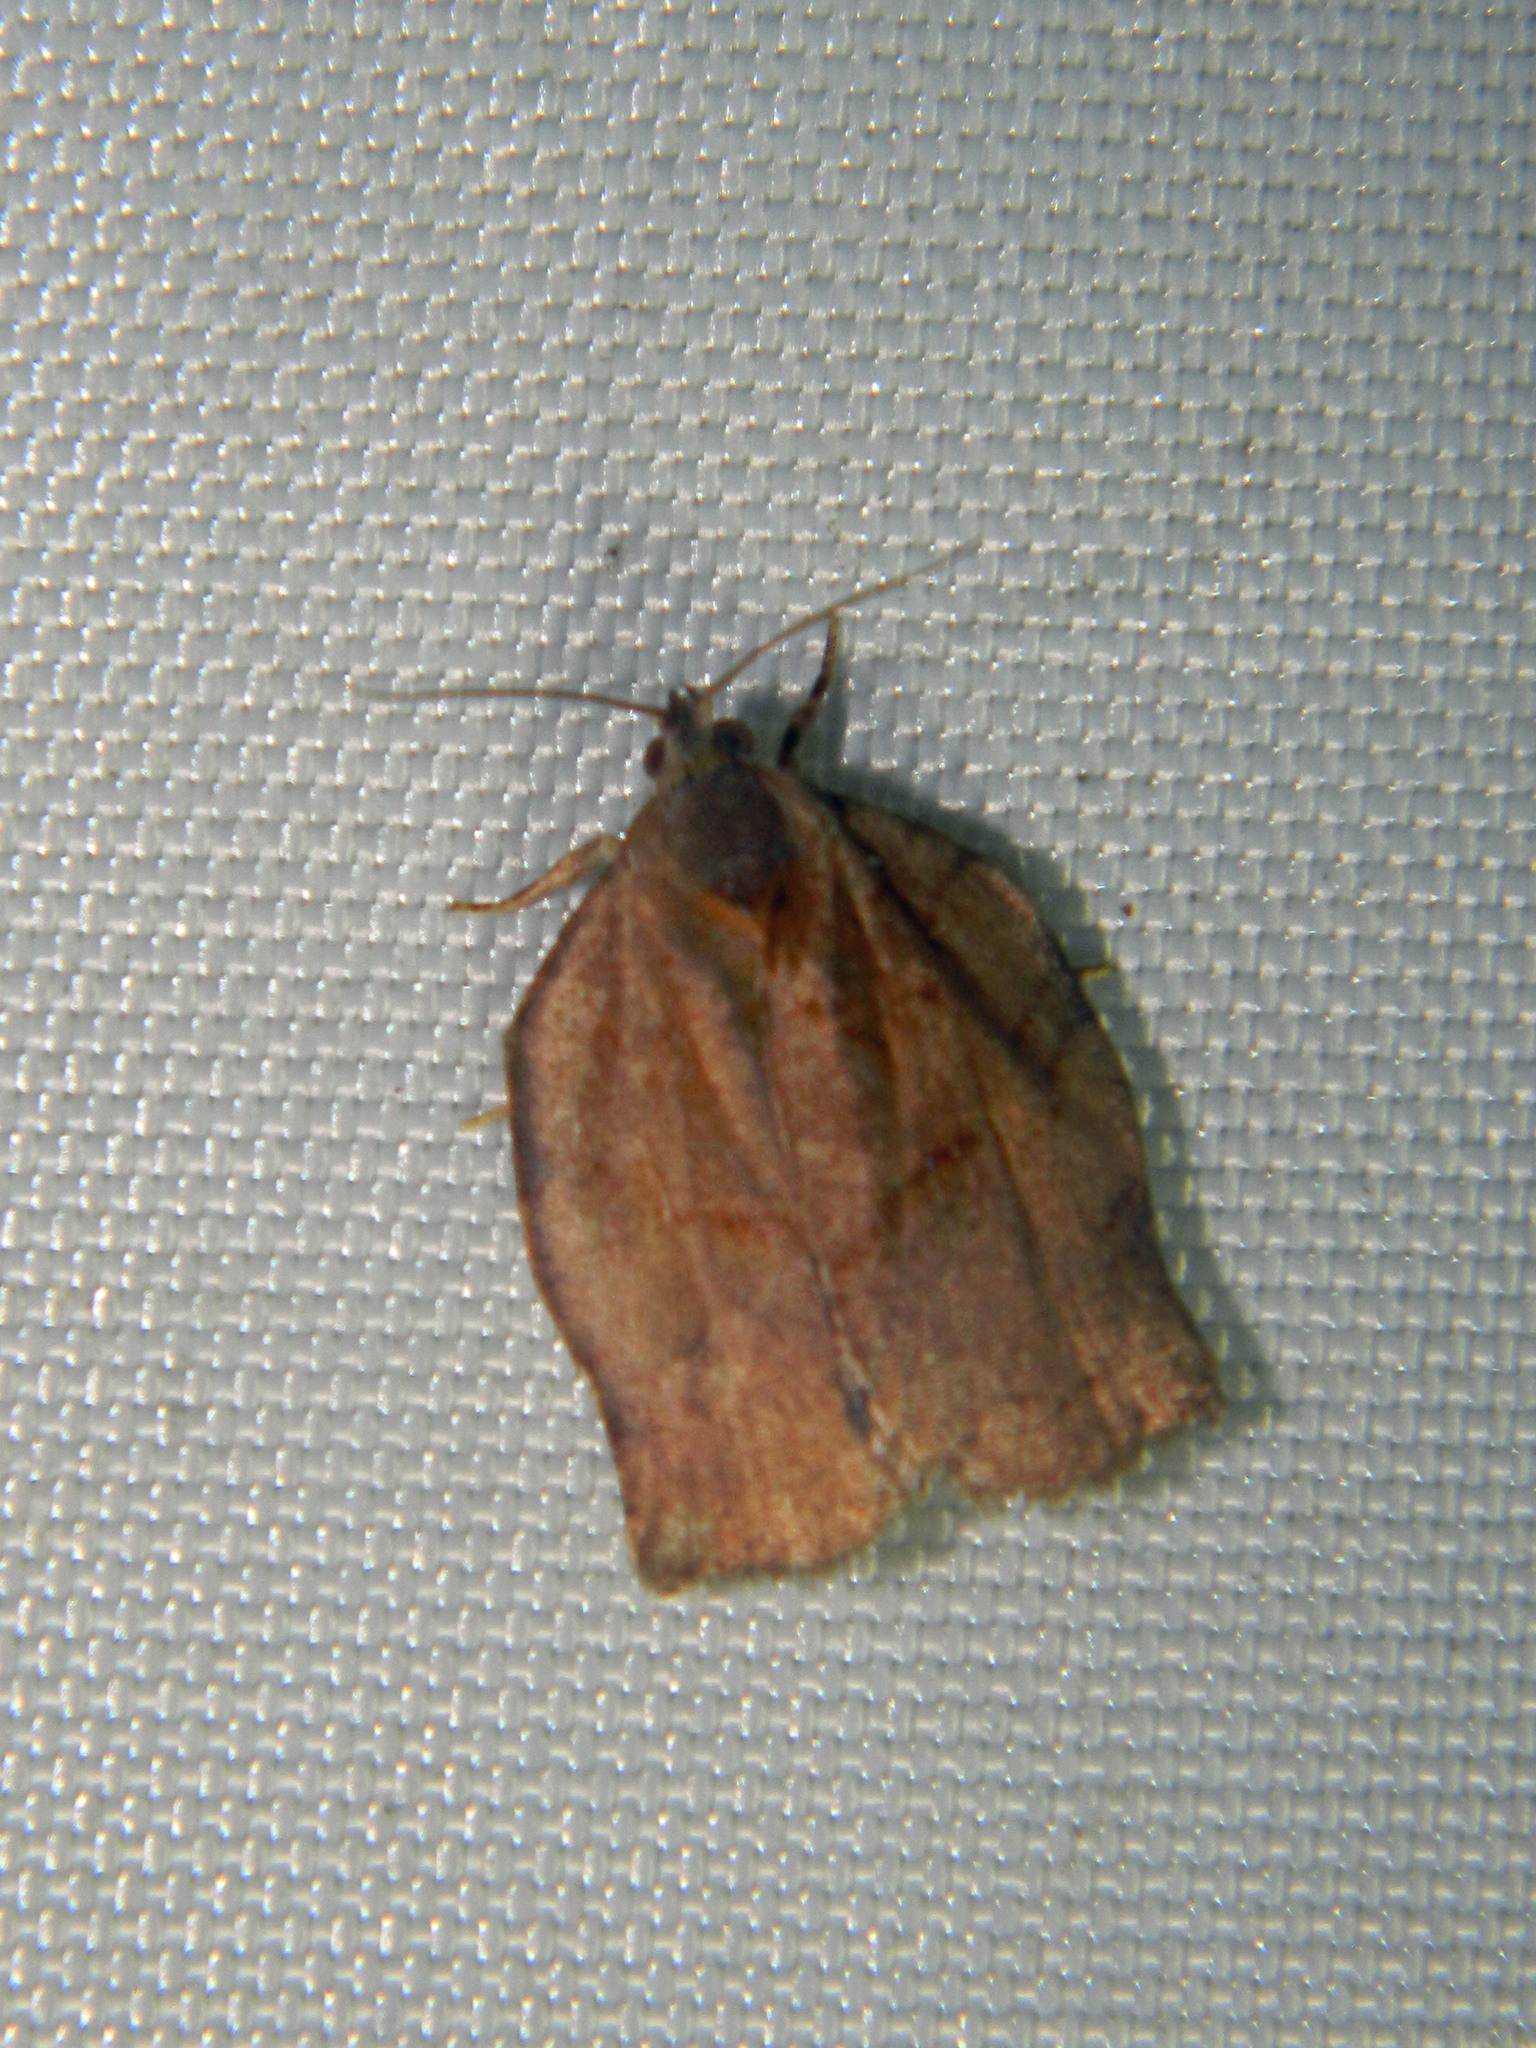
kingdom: Animalia
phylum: Arthropoda
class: Insecta
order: Lepidoptera
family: Tortricidae
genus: Archips
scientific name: Archips purpurana
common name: Omnivorous leafroller
